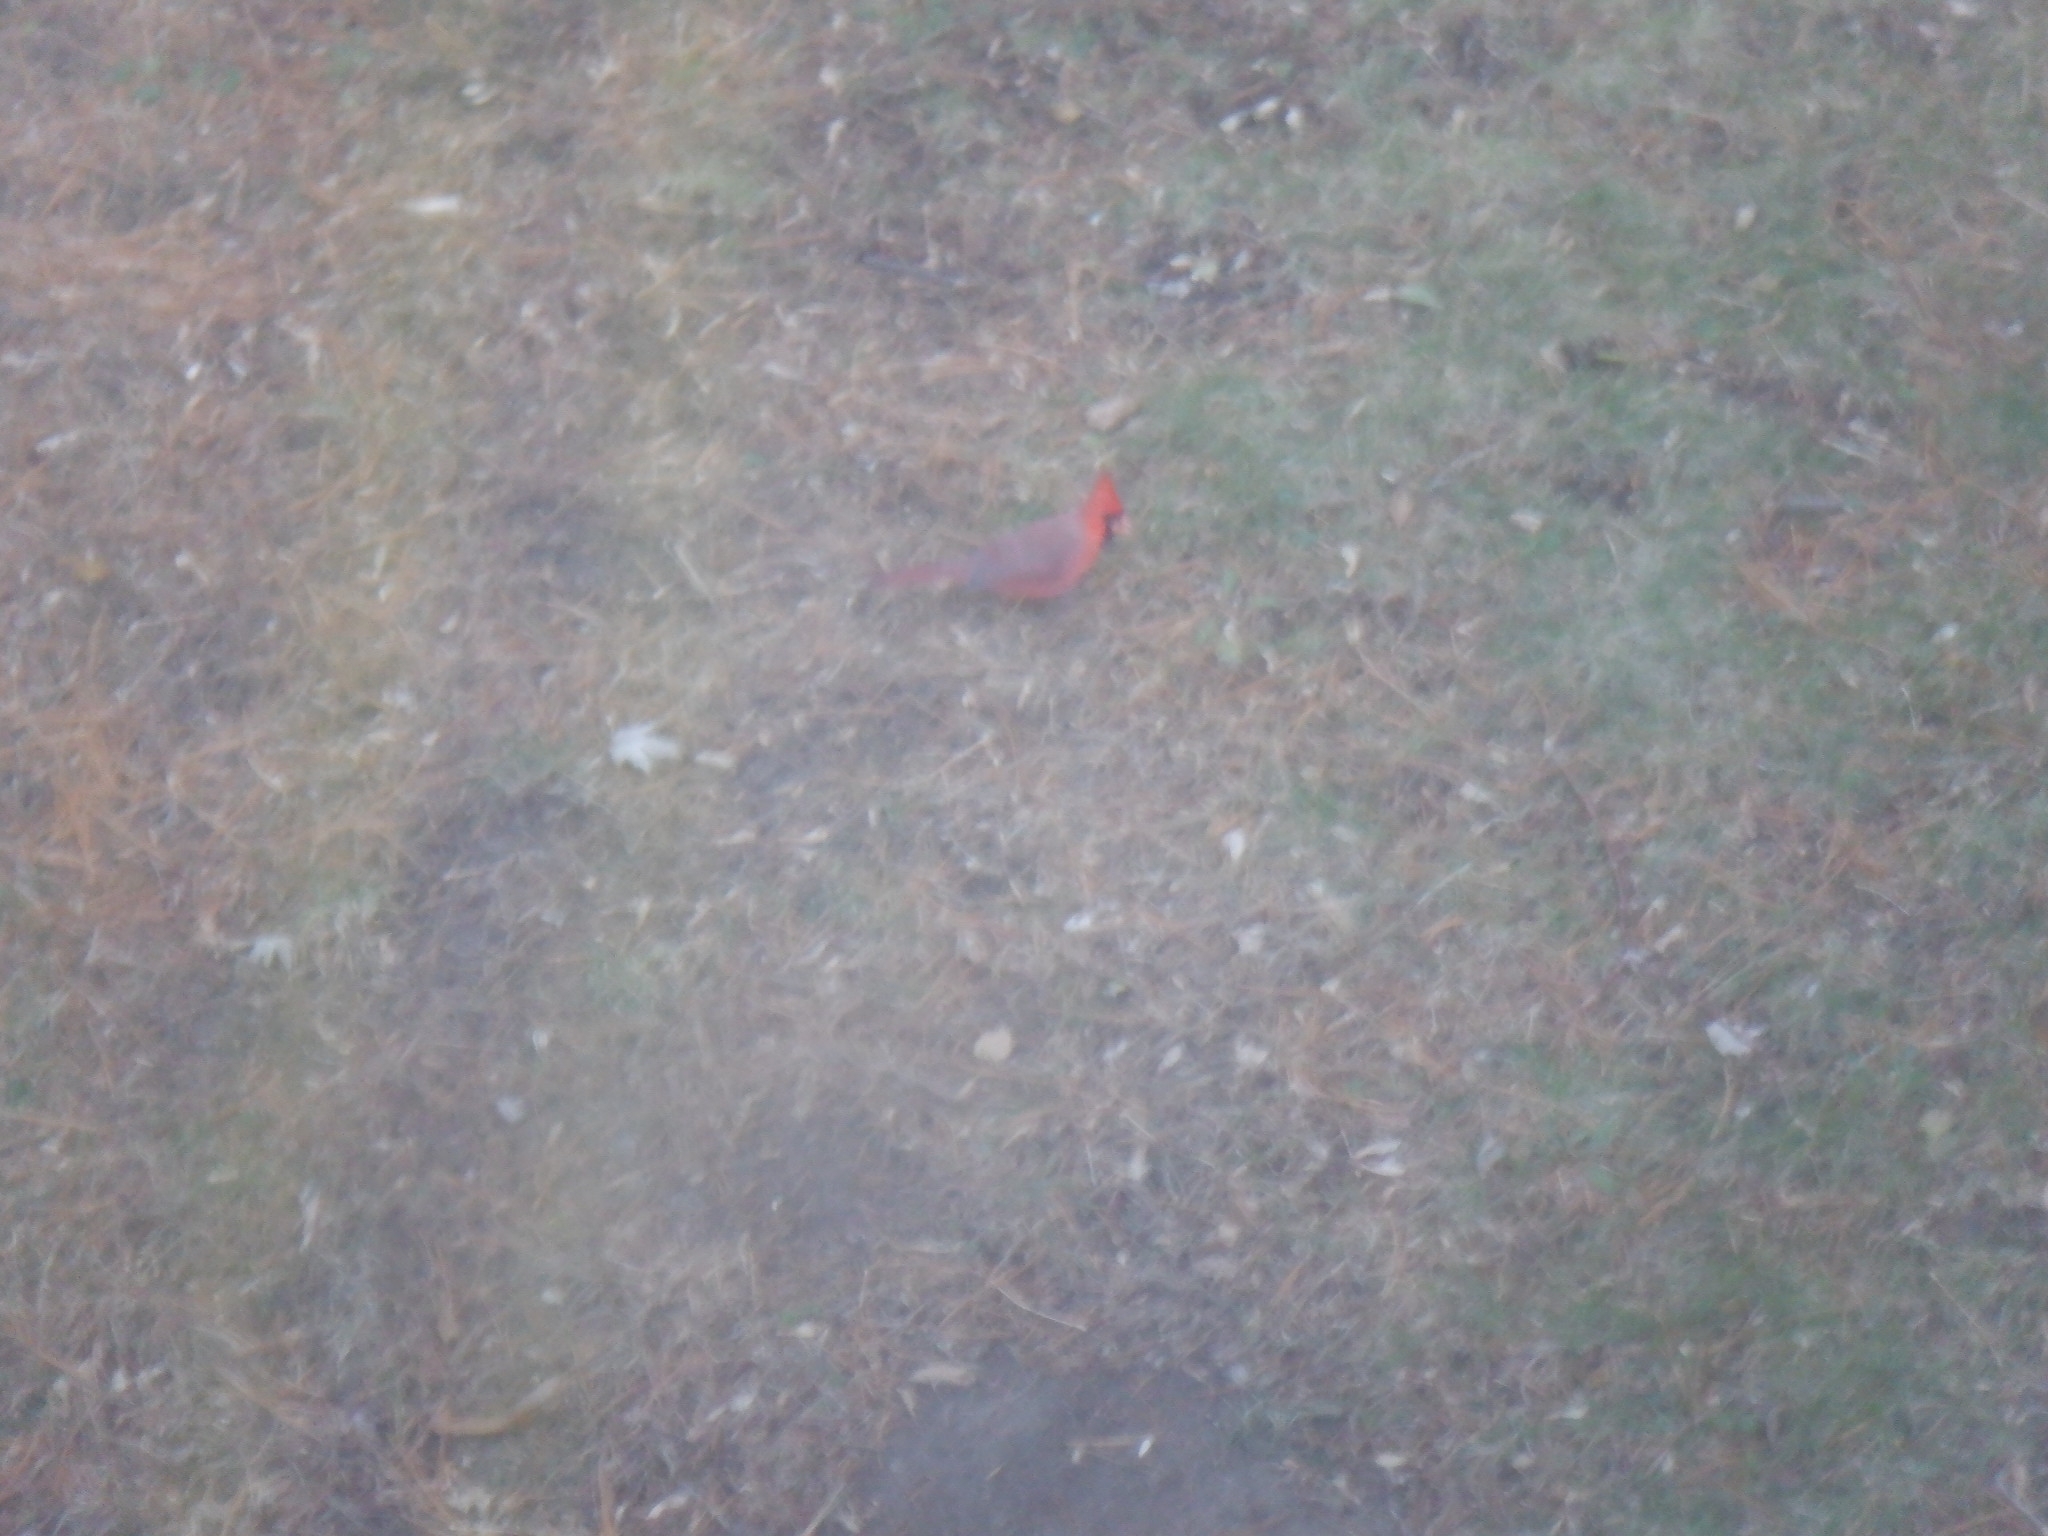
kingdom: Animalia
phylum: Chordata
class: Aves
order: Passeriformes
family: Cardinalidae
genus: Cardinalis
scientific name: Cardinalis cardinalis
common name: Northern cardinal
